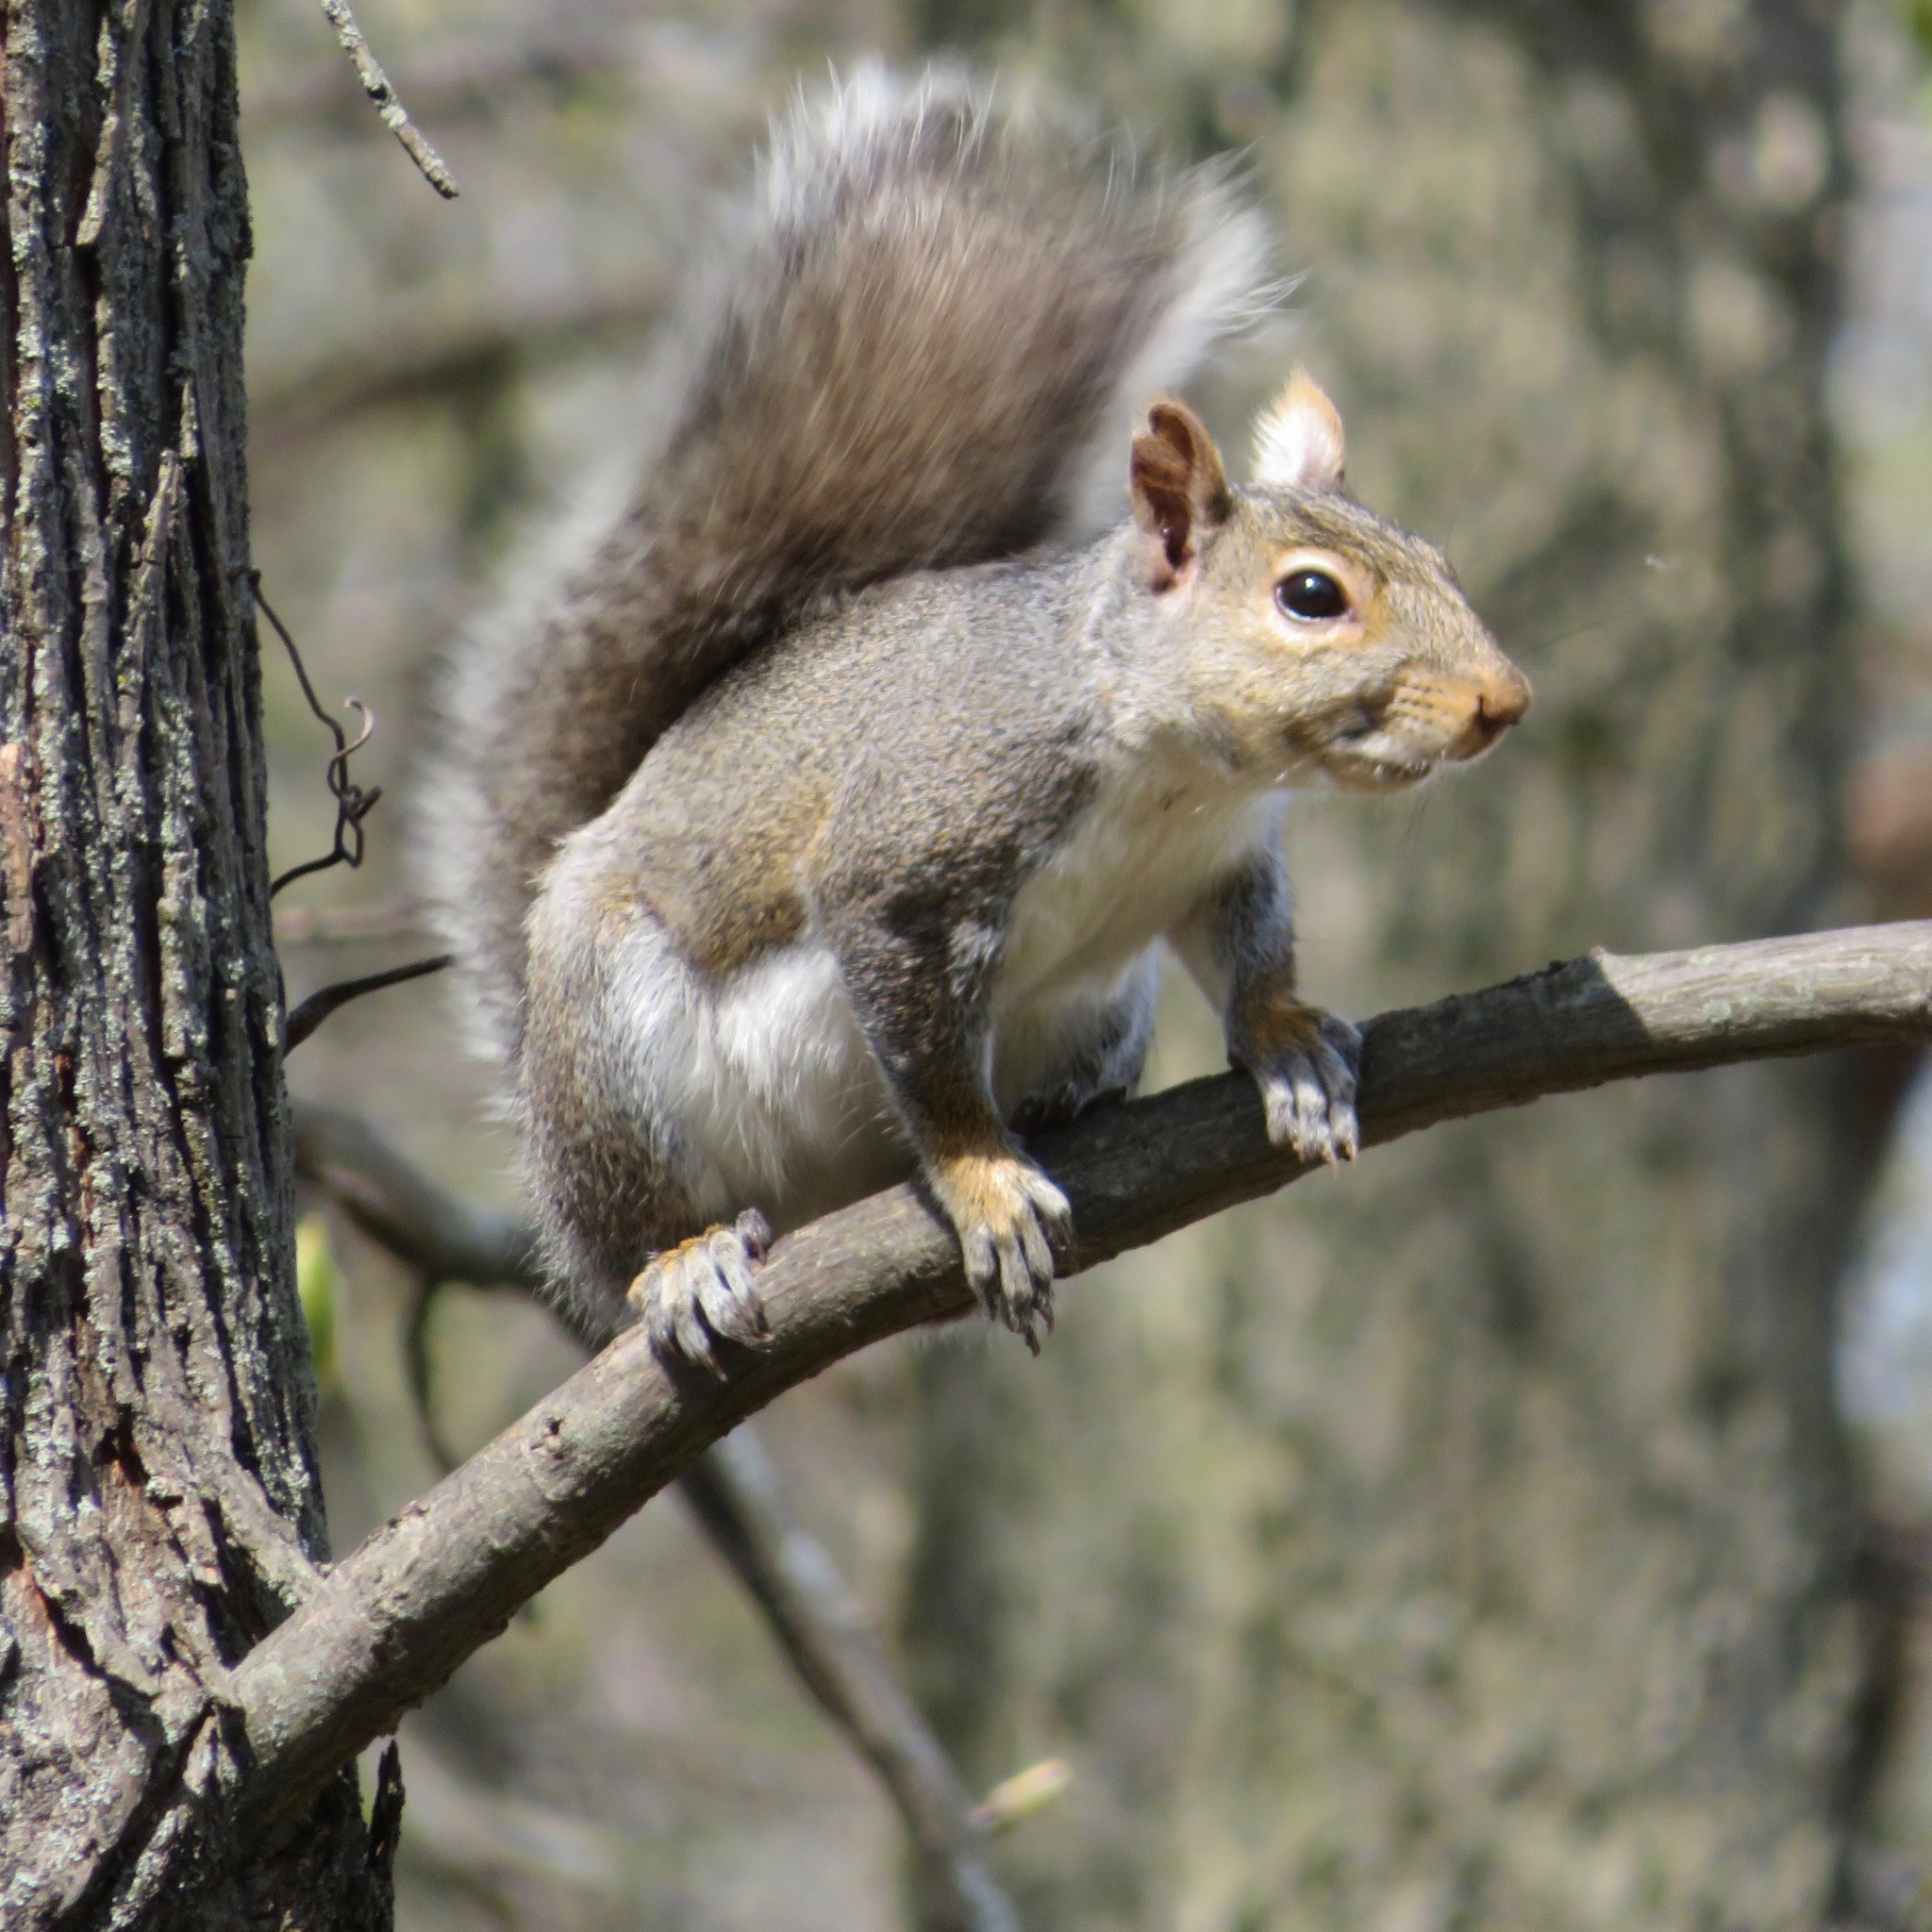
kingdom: Animalia
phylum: Chordata
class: Mammalia
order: Rodentia
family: Sciuridae
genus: Sciurus
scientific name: Sciurus carolinensis
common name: Eastern gray squirrel
